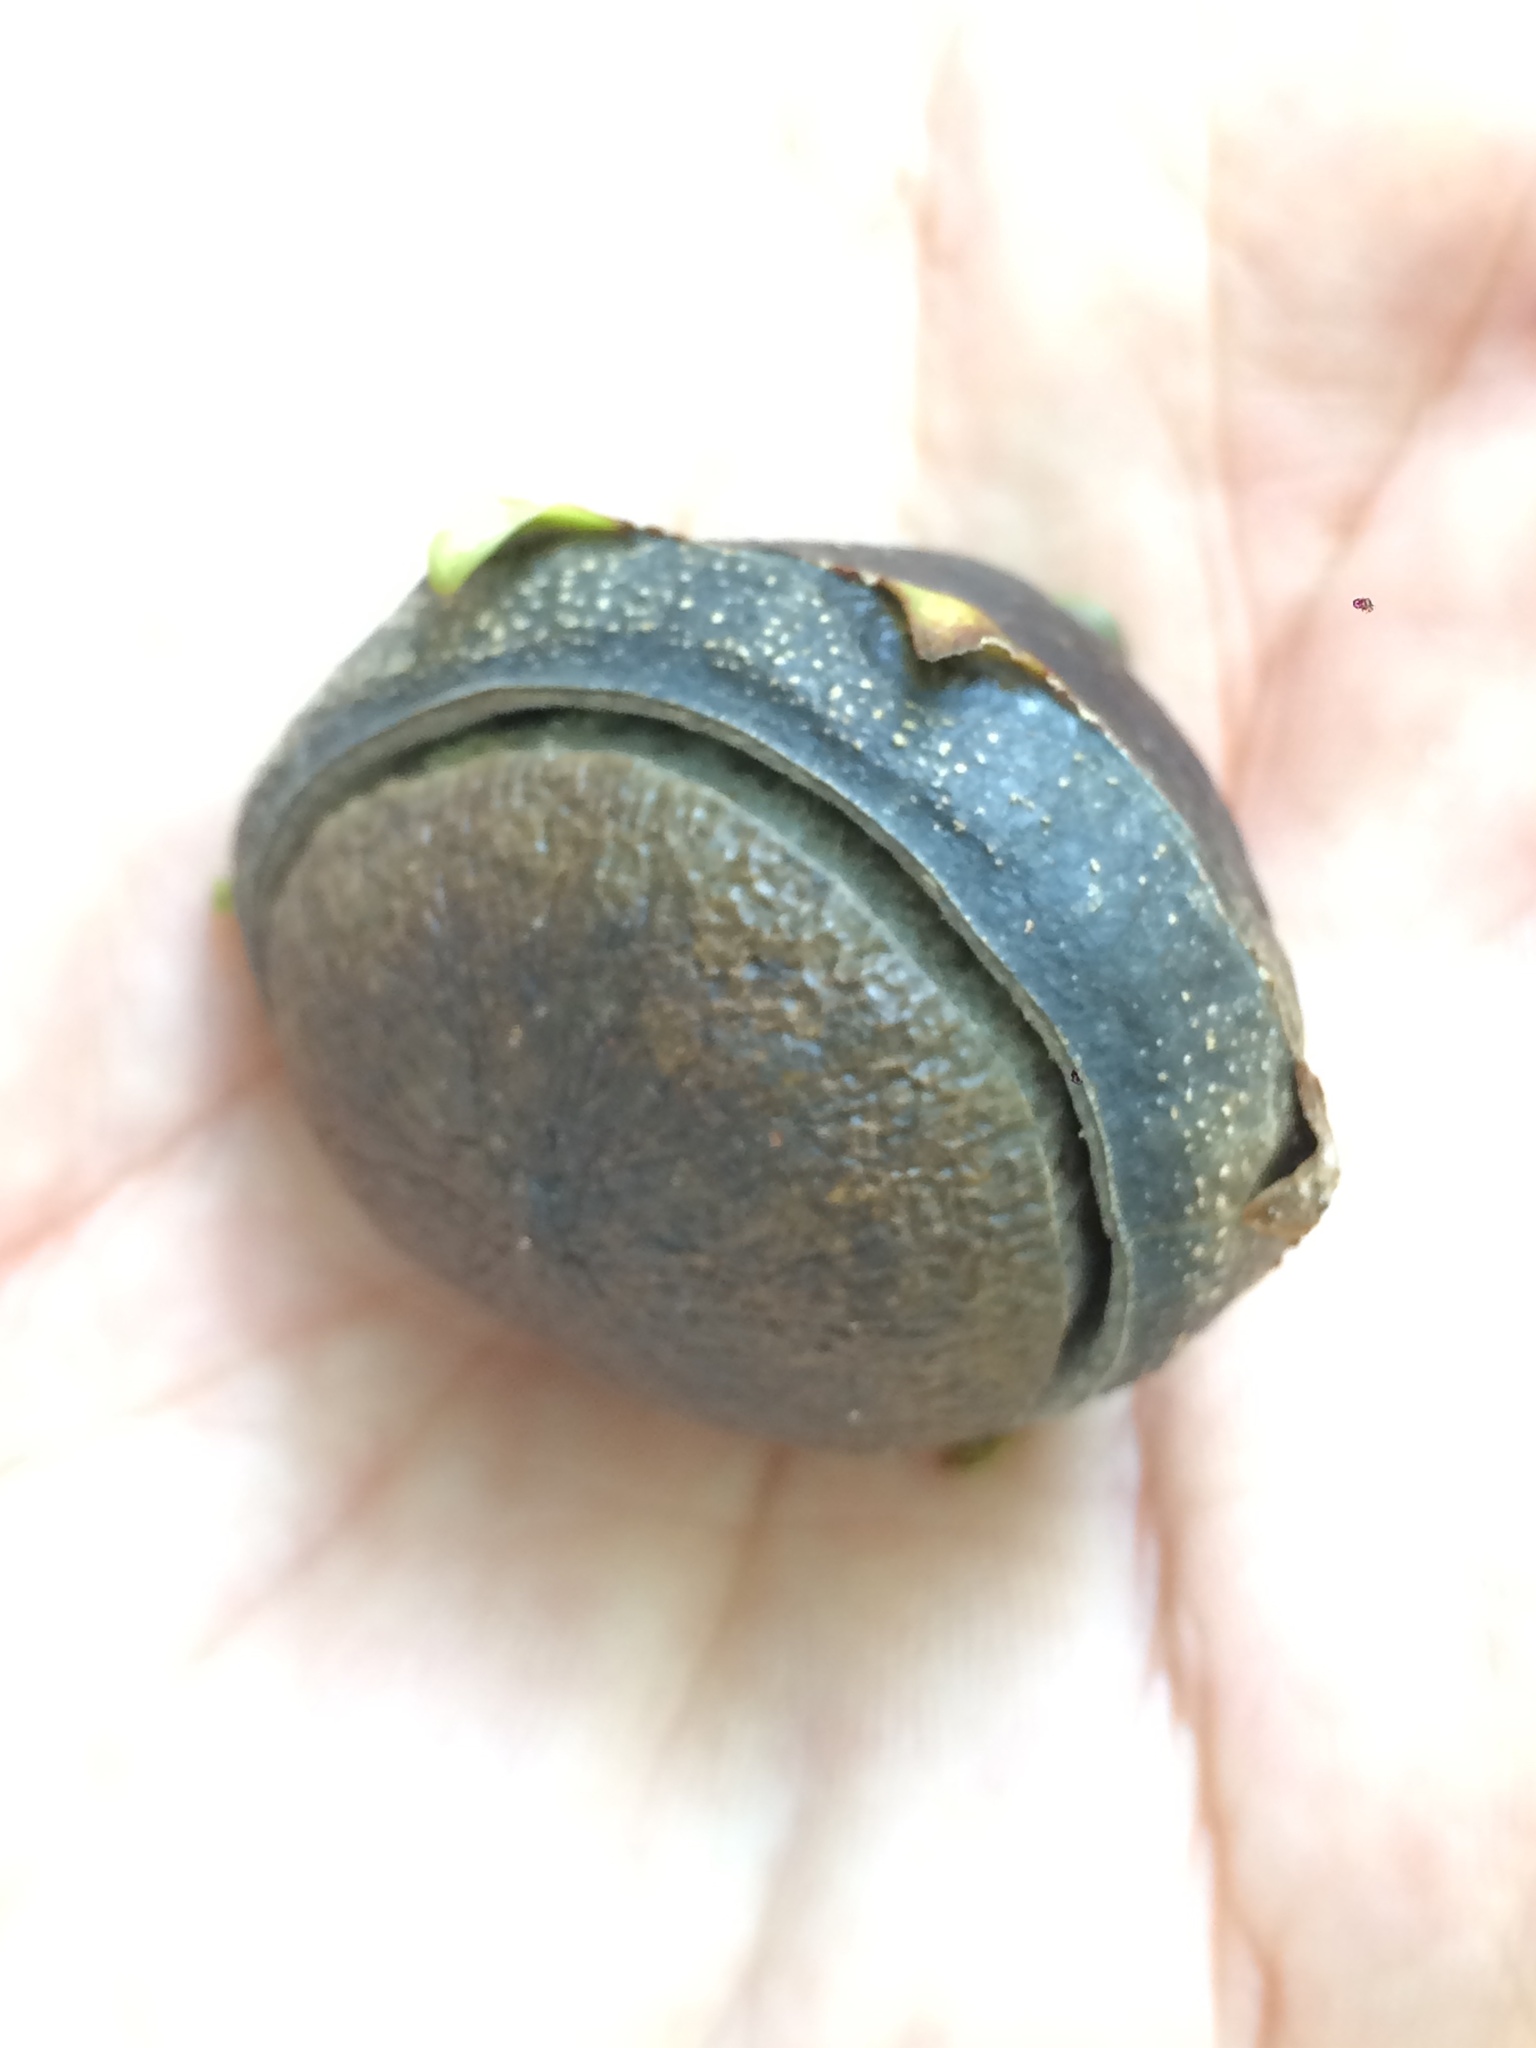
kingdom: Plantae
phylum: Tracheophyta
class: Magnoliopsida
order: Ericales
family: Lecythidaceae
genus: Eschweilera
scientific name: Eschweilera ovata
